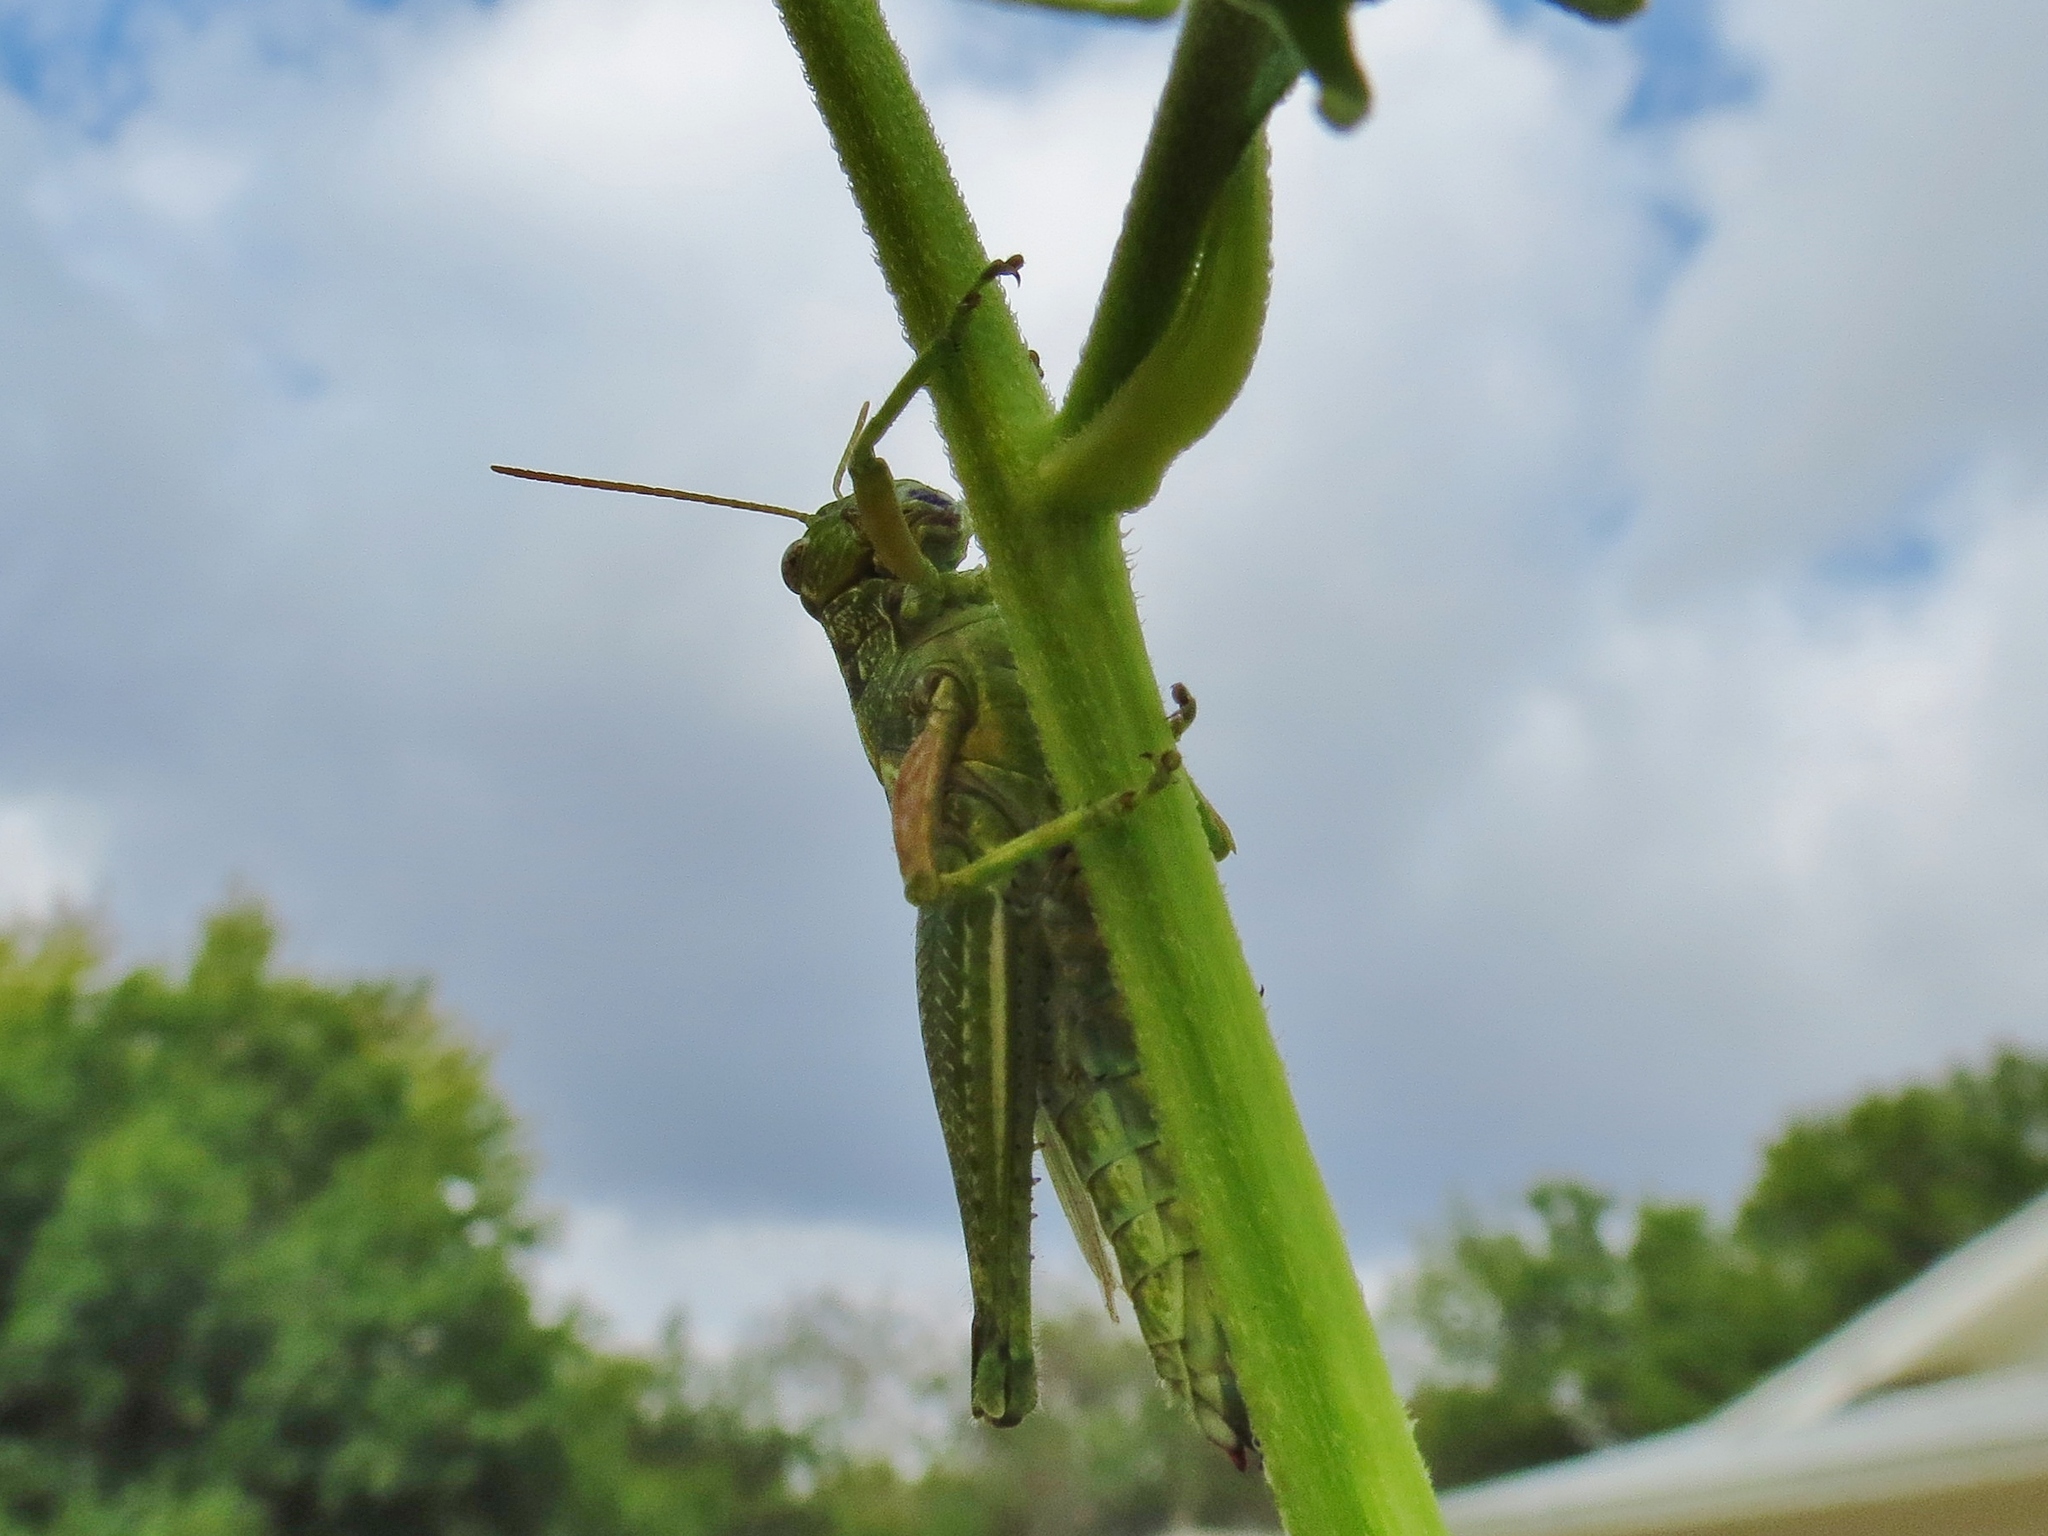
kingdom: Animalia
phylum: Arthropoda
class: Insecta
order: Orthoptera
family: Acrididae
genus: Campylacantha
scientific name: Campylacantha olivacea
